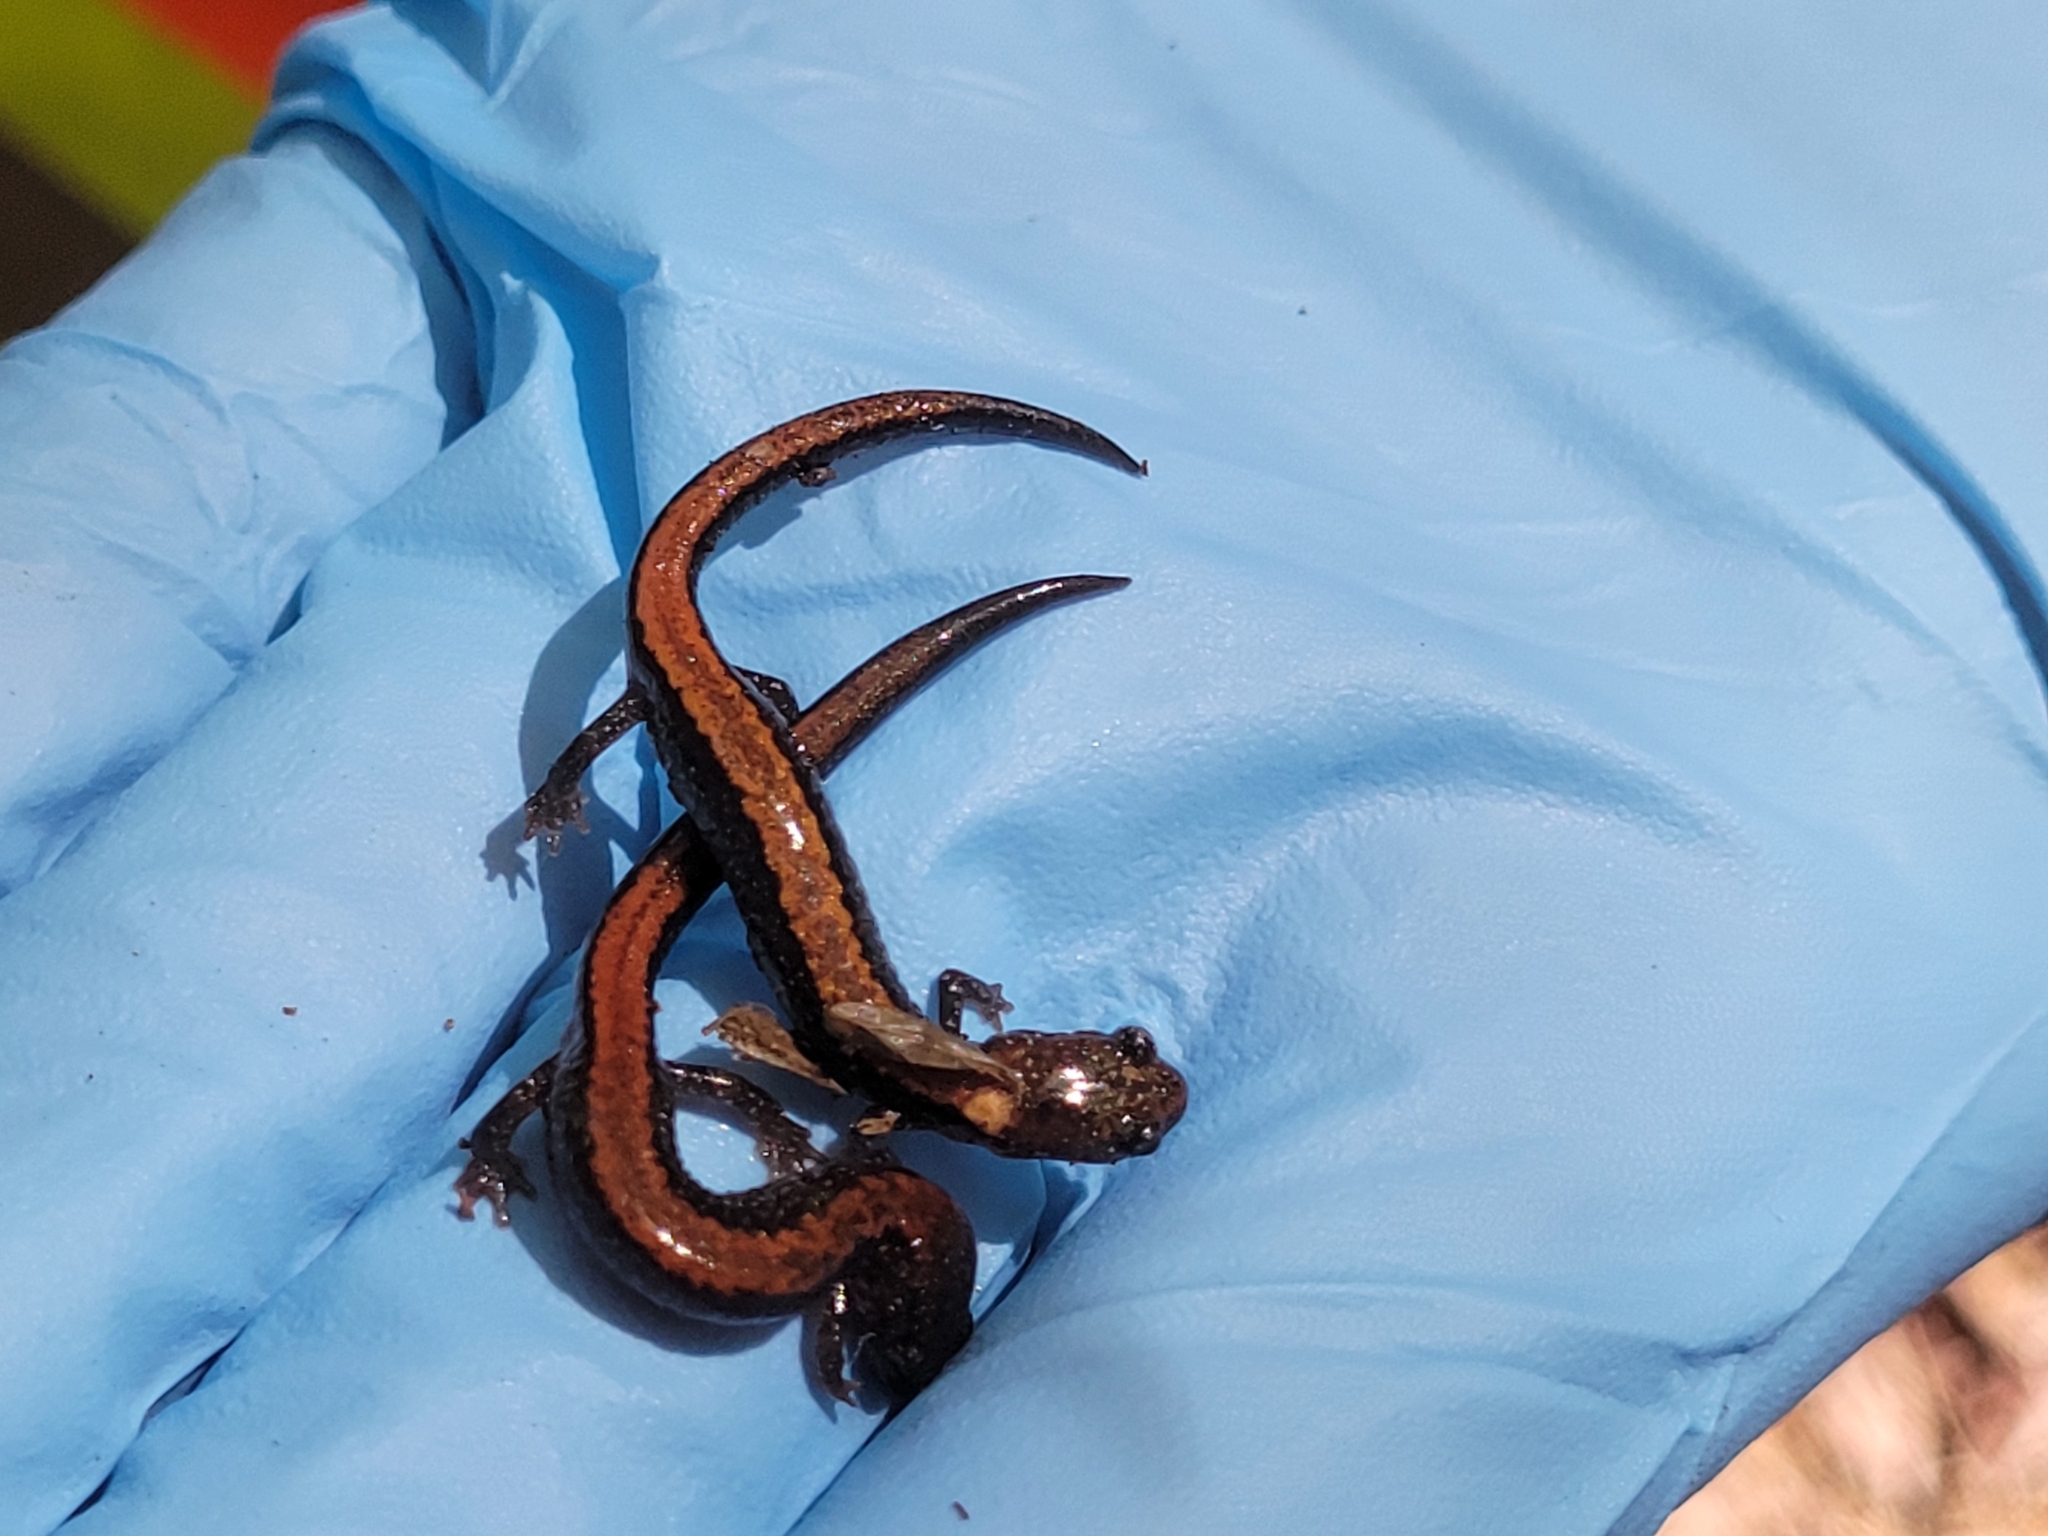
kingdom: Animalia
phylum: Chordata
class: Amphibia
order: Caudata
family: Plethodontidae
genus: Plethodon
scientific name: Plethodon cinereus
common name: Redback salamander
